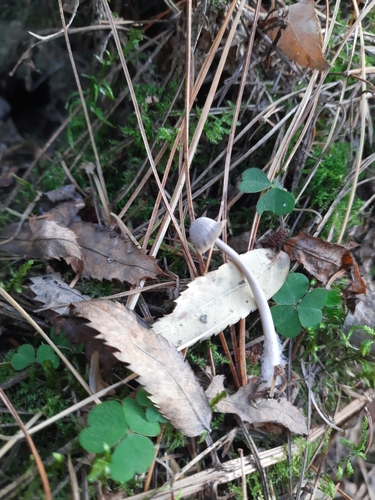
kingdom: Fungi
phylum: Basidiomycota
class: Agaricomycetes
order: Agaricales
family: Mycenaceae
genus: Mycena
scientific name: Mycena
